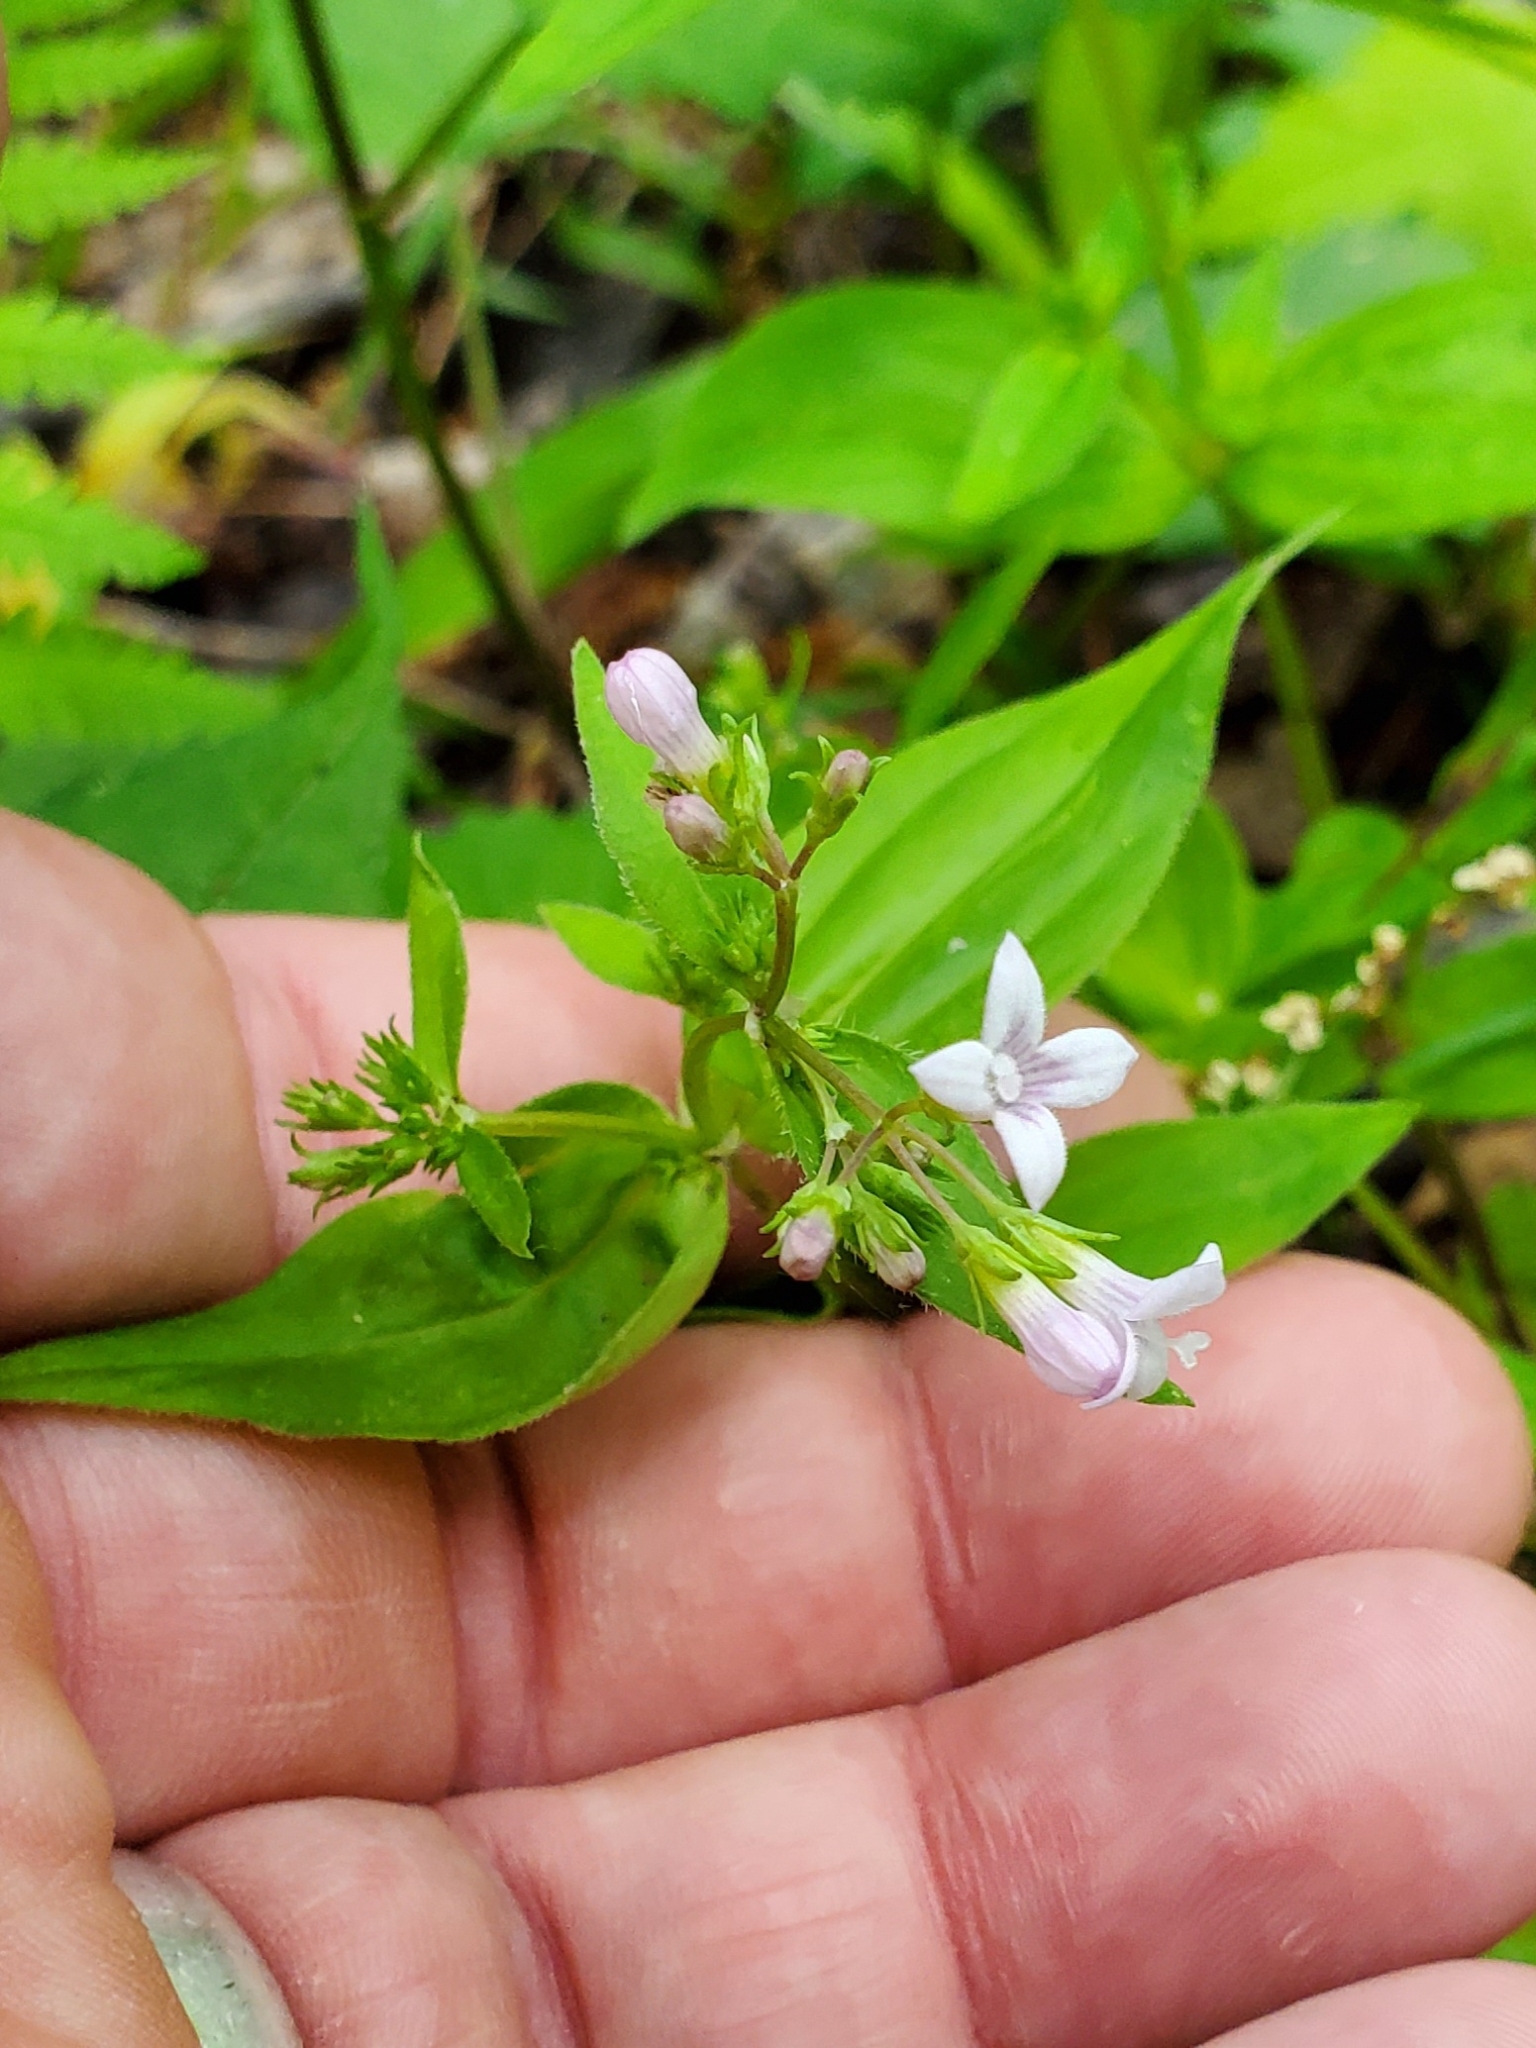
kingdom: Plantae
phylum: Tracheophyta
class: Magnoliopsida
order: Gentianales
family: Rubiaceae
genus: Houstonia
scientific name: Houstonia purpurea
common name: Summer bluet
